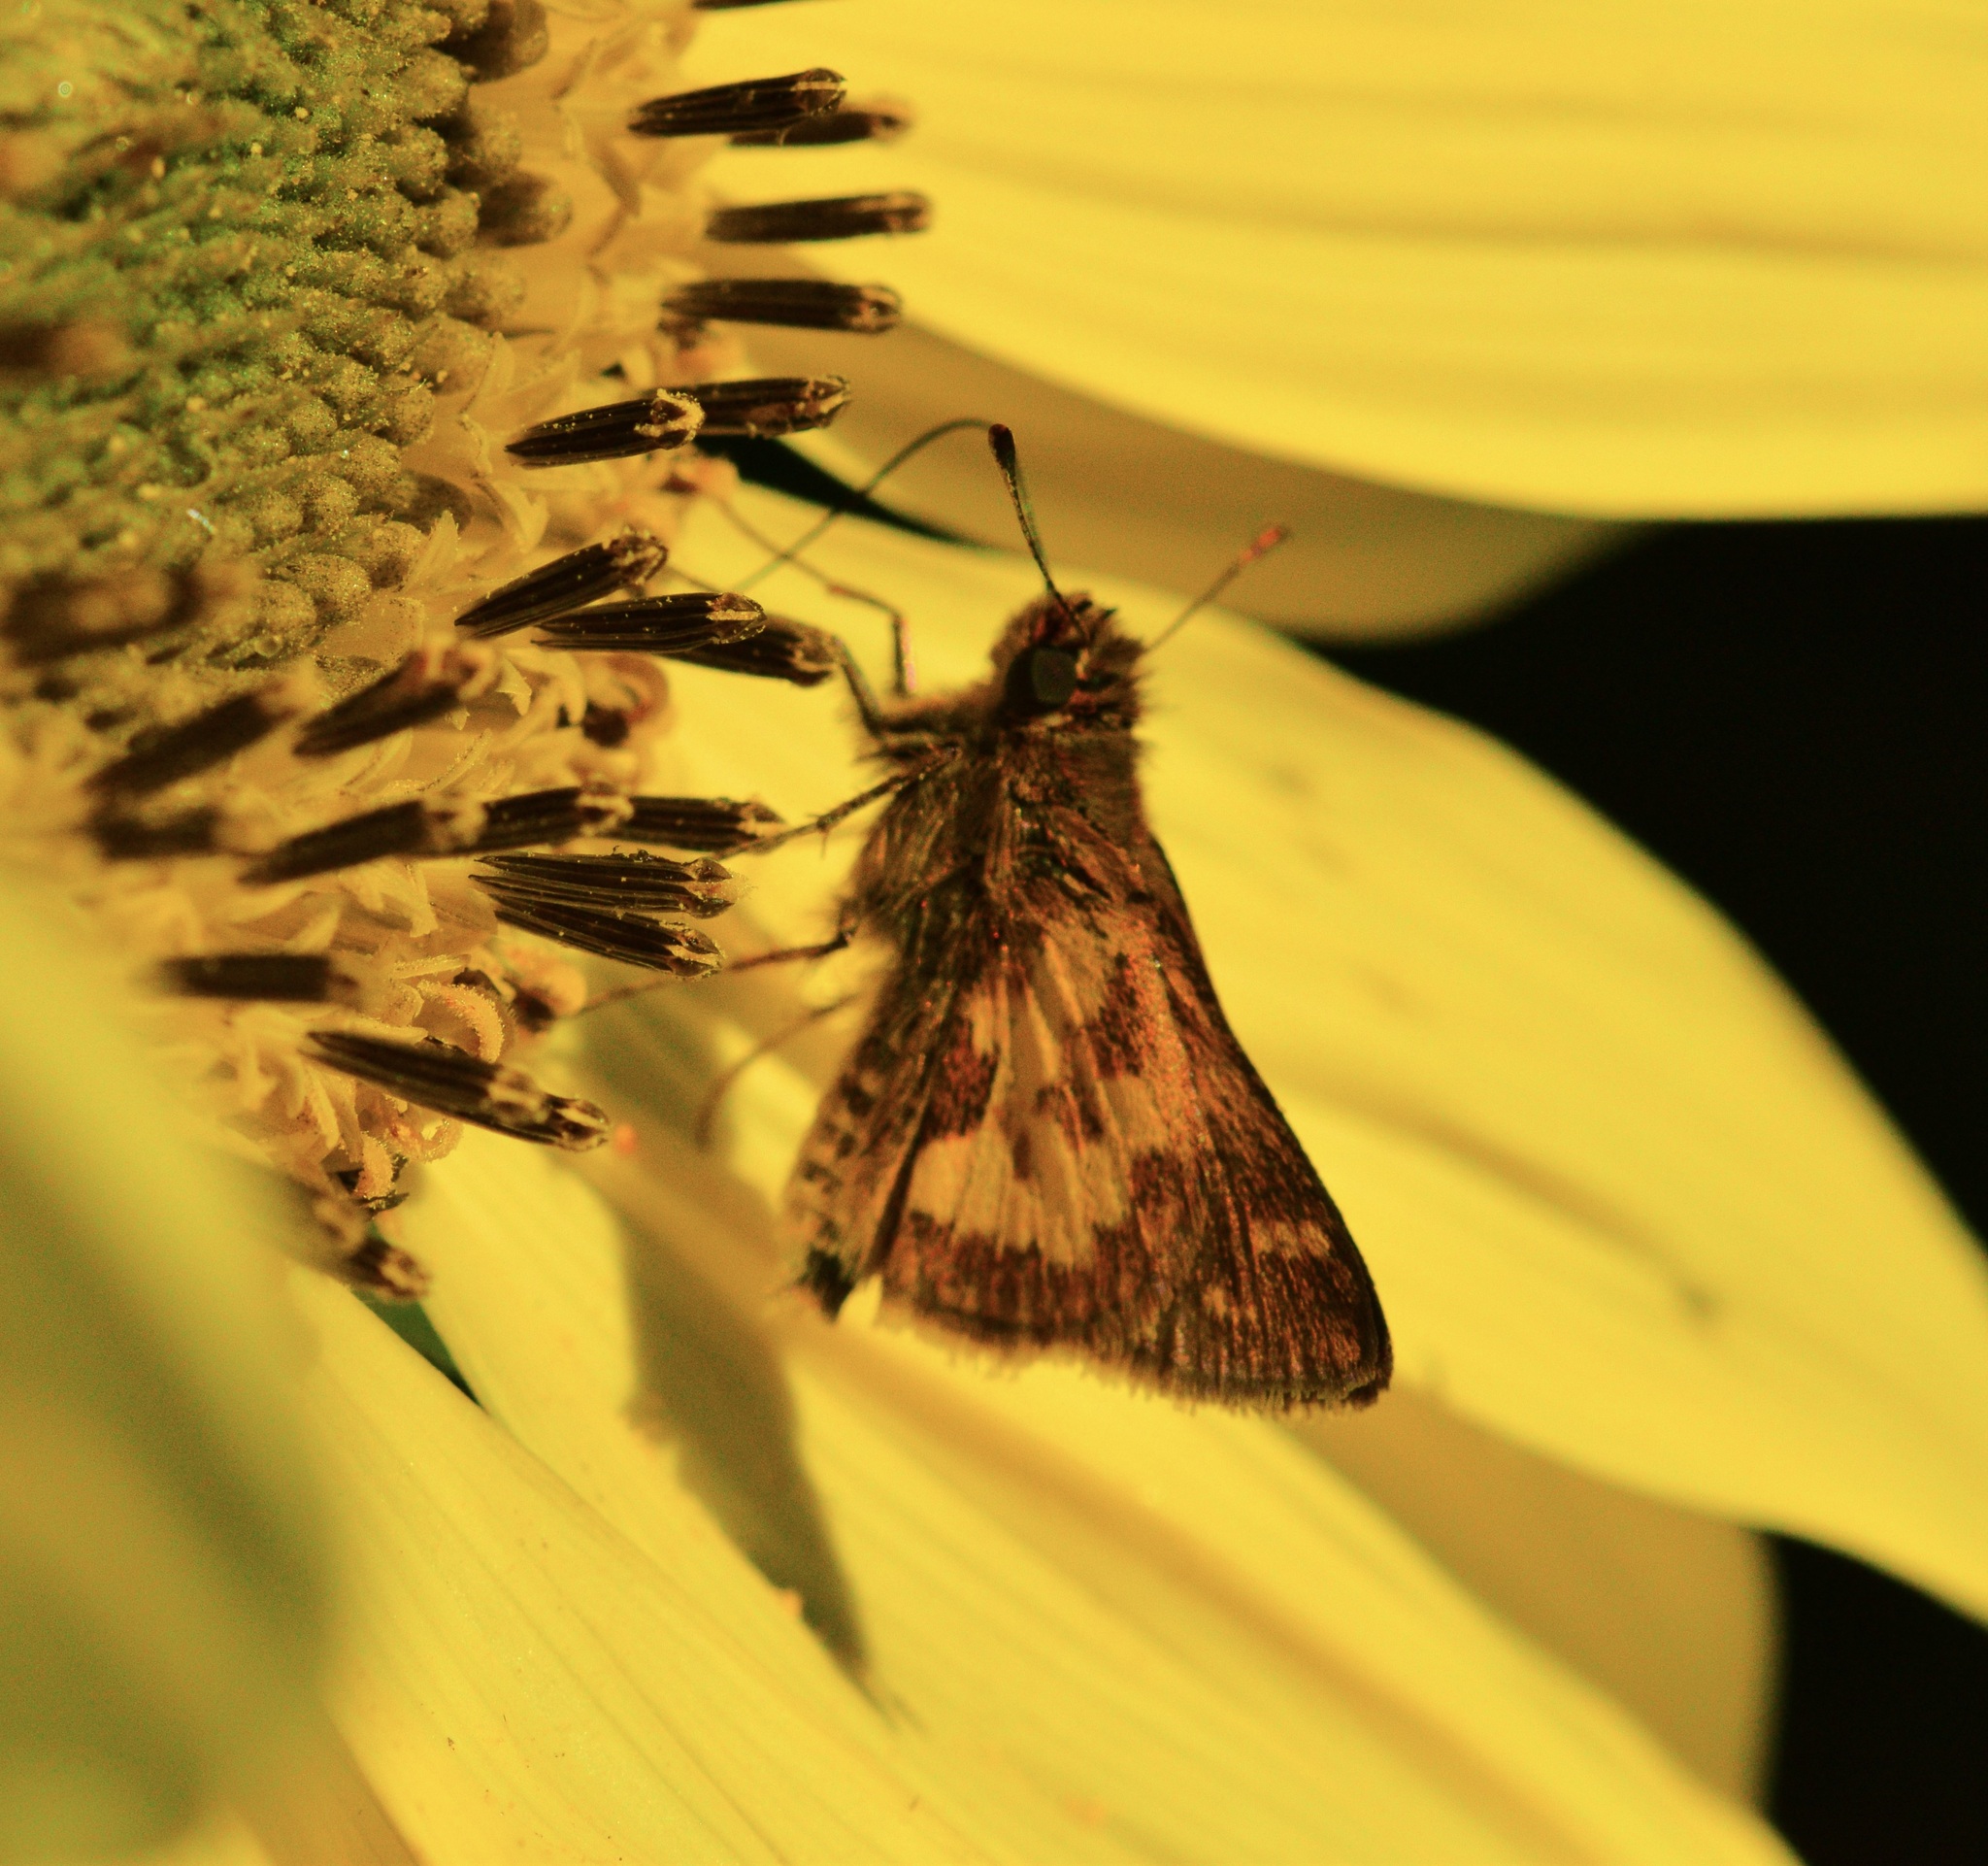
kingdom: Animalia
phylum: Arthropoda
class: Insecta
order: Lepidoptera
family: Hesperiidae
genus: Polites
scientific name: Polites coras
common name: Peck's skipper
